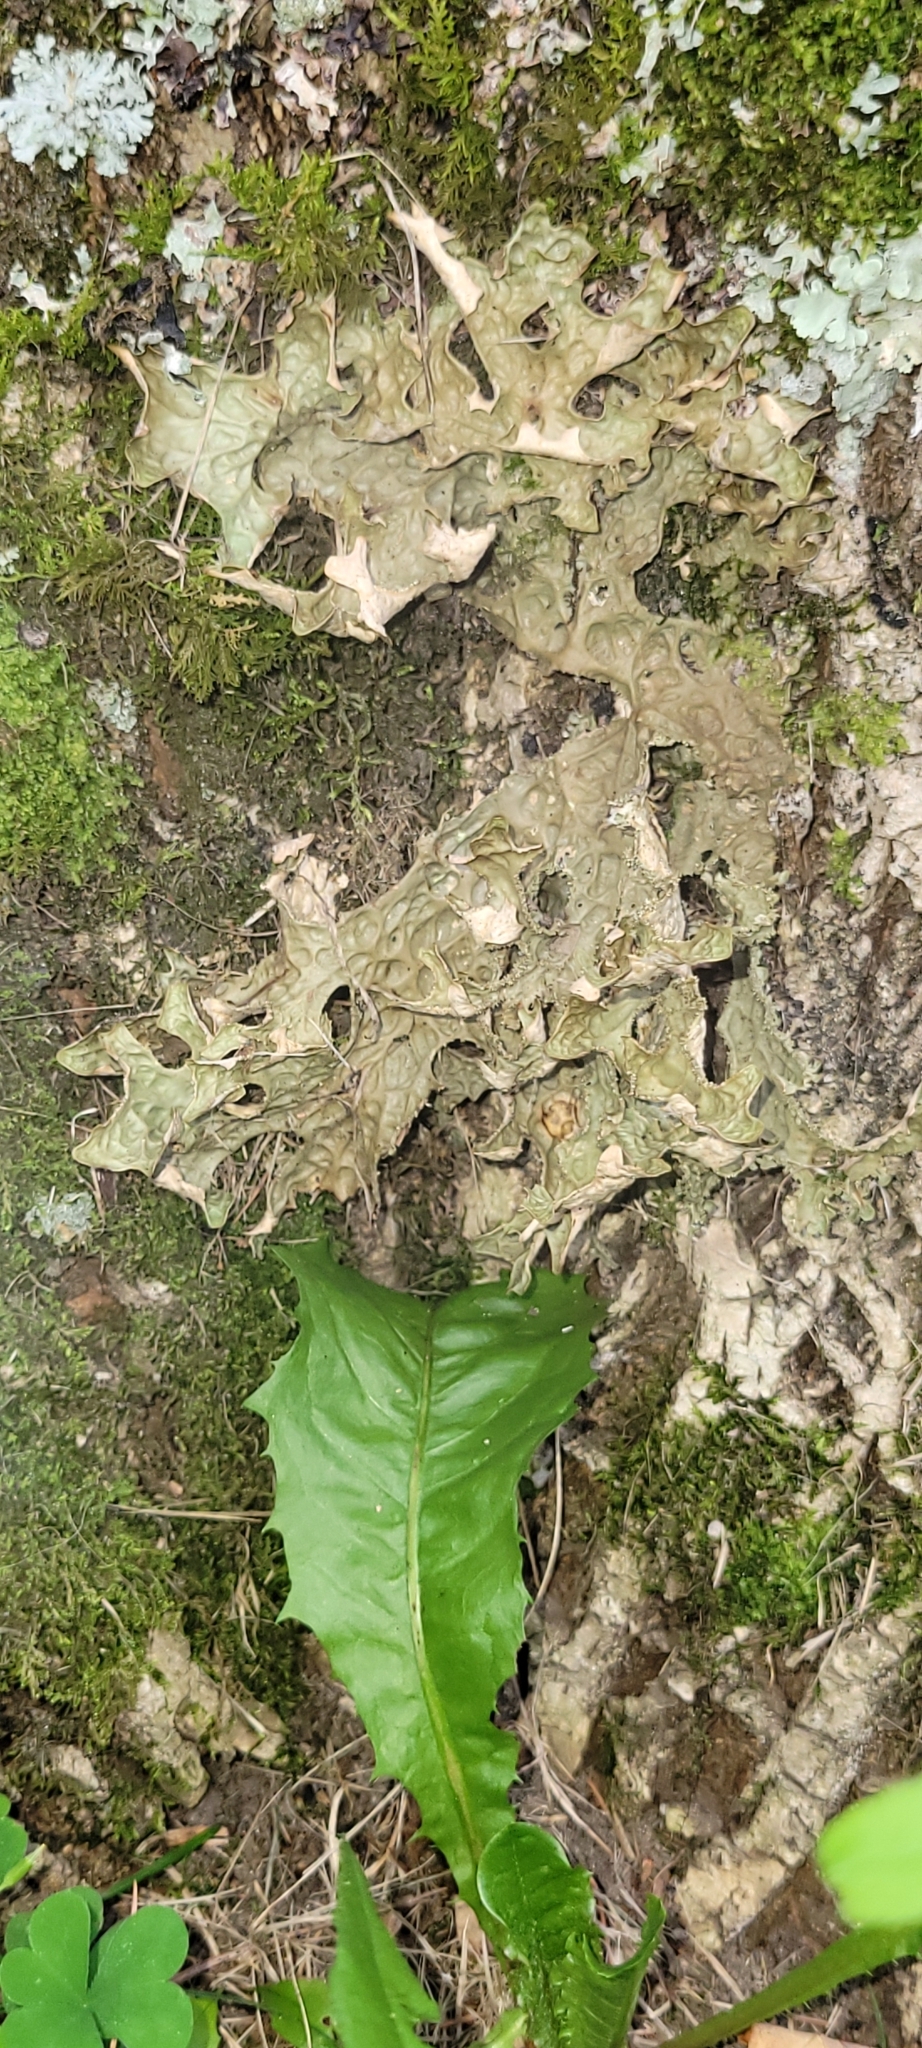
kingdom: Fungi
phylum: Ascomycota
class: Lecanoromycetes
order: Peltigerales
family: Lobariaceae
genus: Lobaria
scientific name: Lobaria pulmonaria
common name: Lungwort
